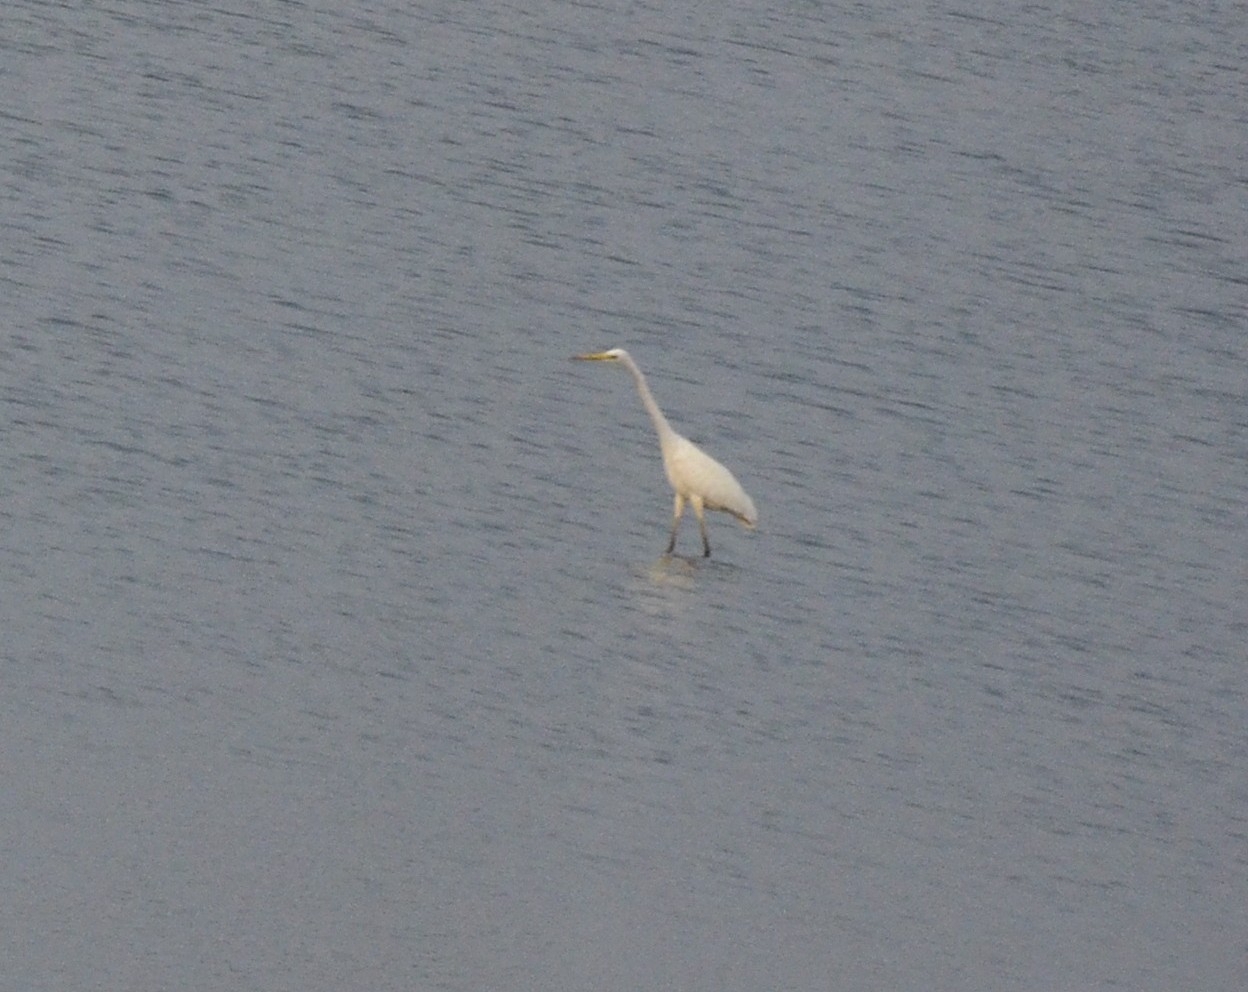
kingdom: Animalia
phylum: Chordata
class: Aves
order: Pelecaniformes
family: Ardeidae
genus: Egretta
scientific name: Egretta intermedia
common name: Intermediate egret
